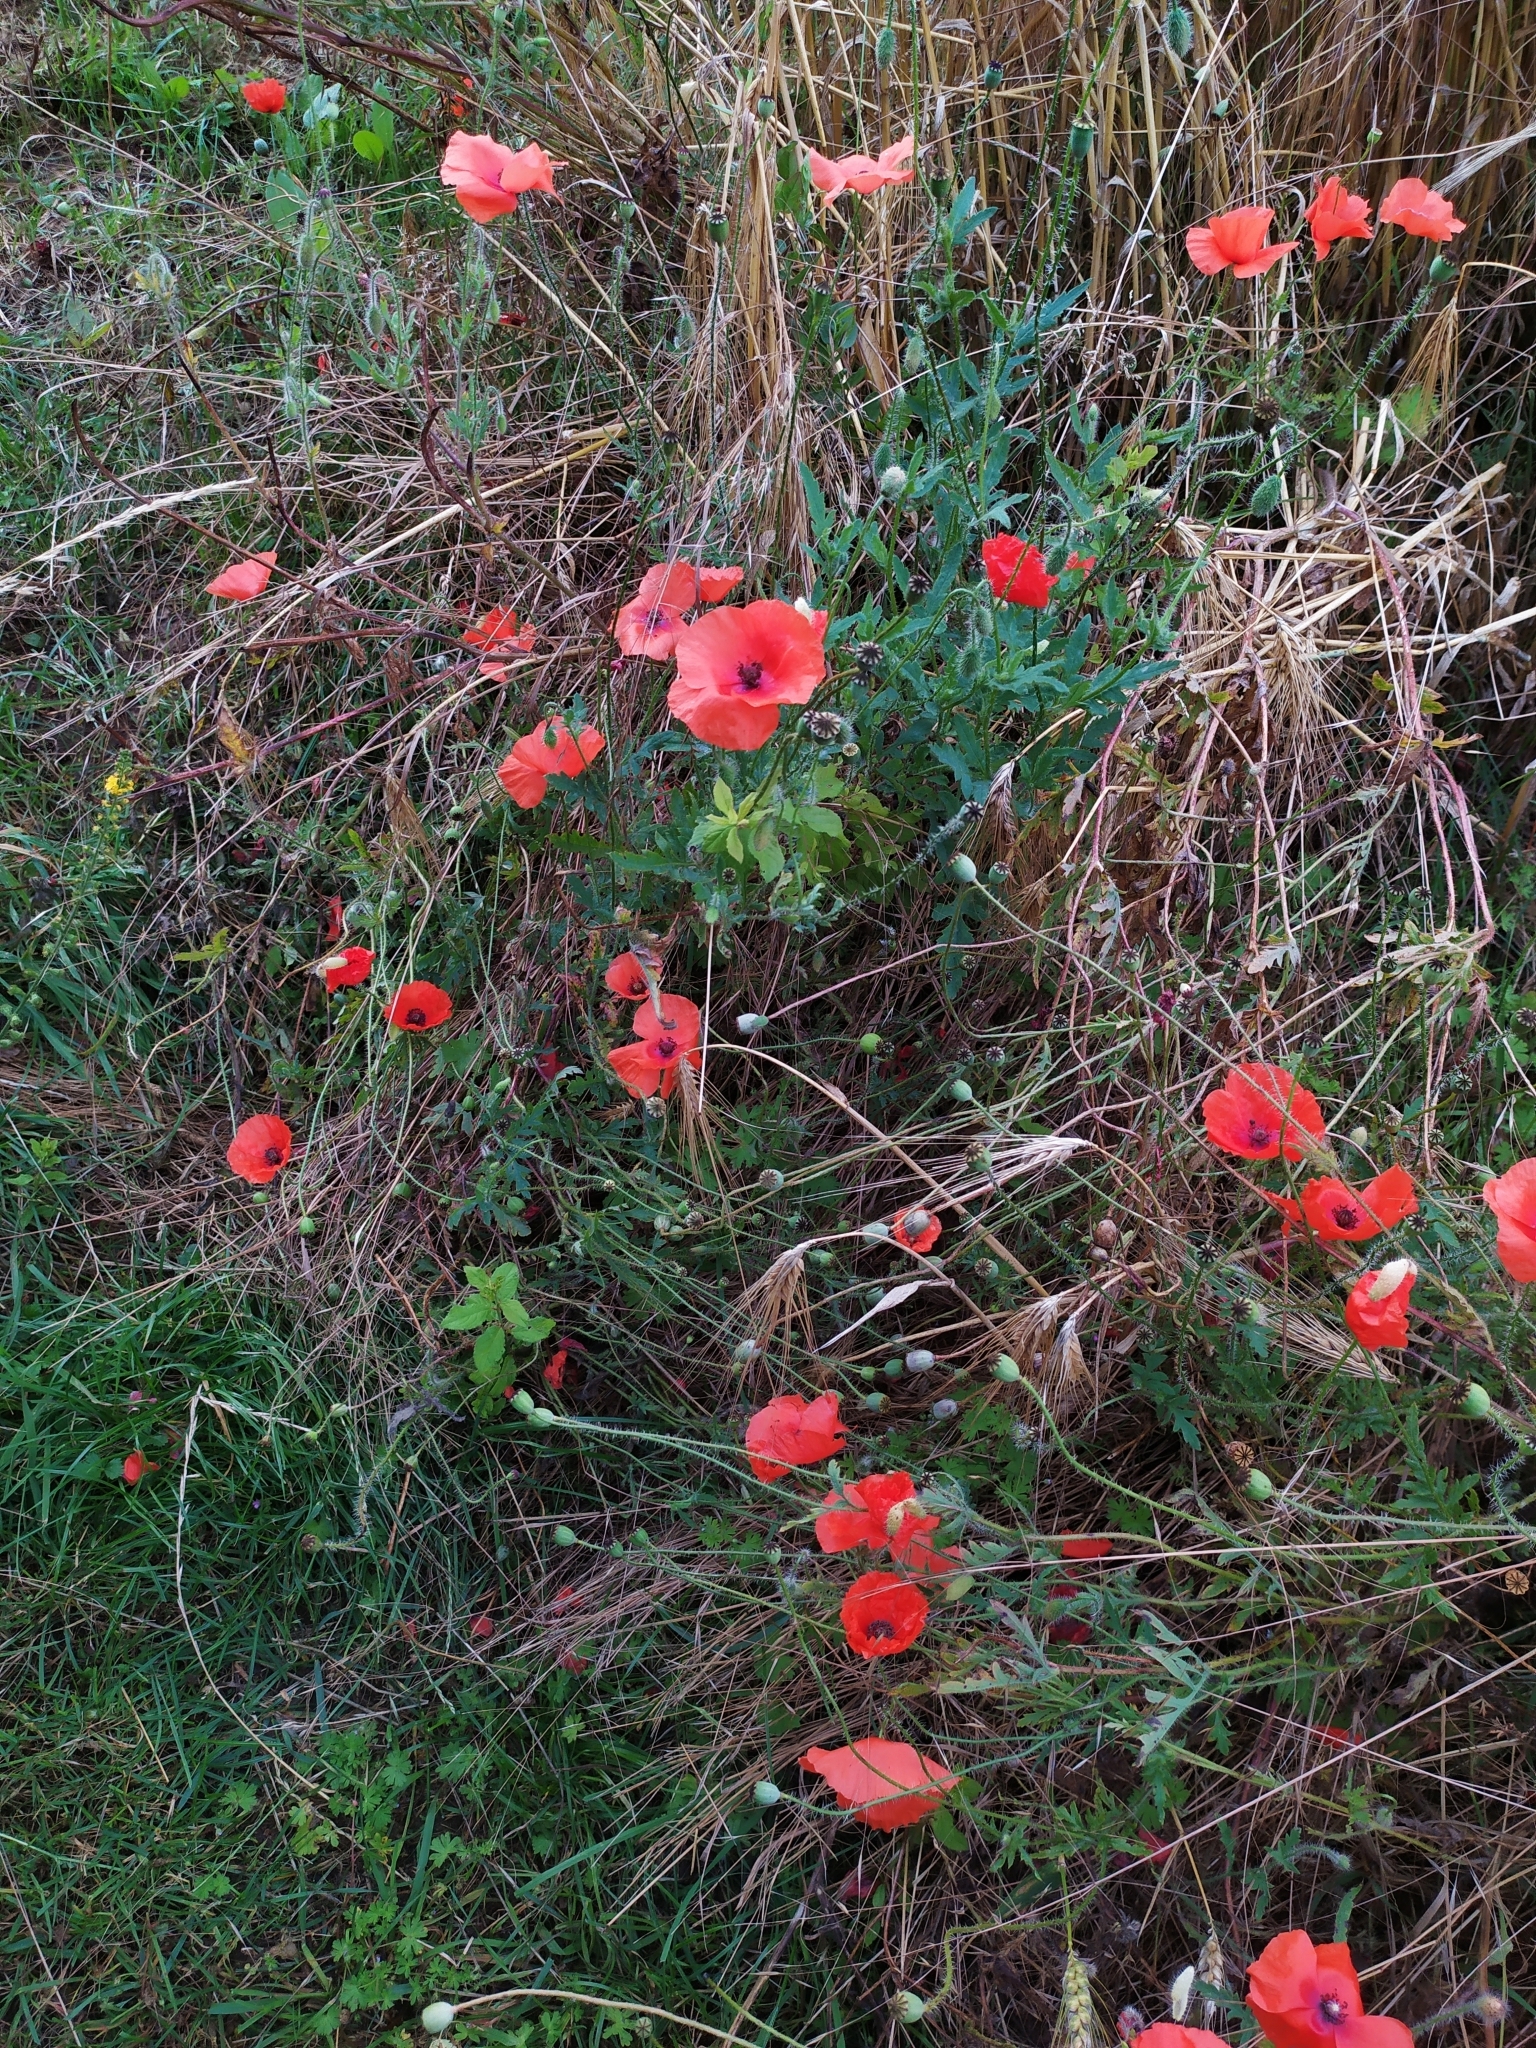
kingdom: Plantae
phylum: Tracheophyta
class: Magnoliopsida
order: Ranunculales
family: Papaveraceae
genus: Papaver
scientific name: Papaver rhoeas
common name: Corn poppy
